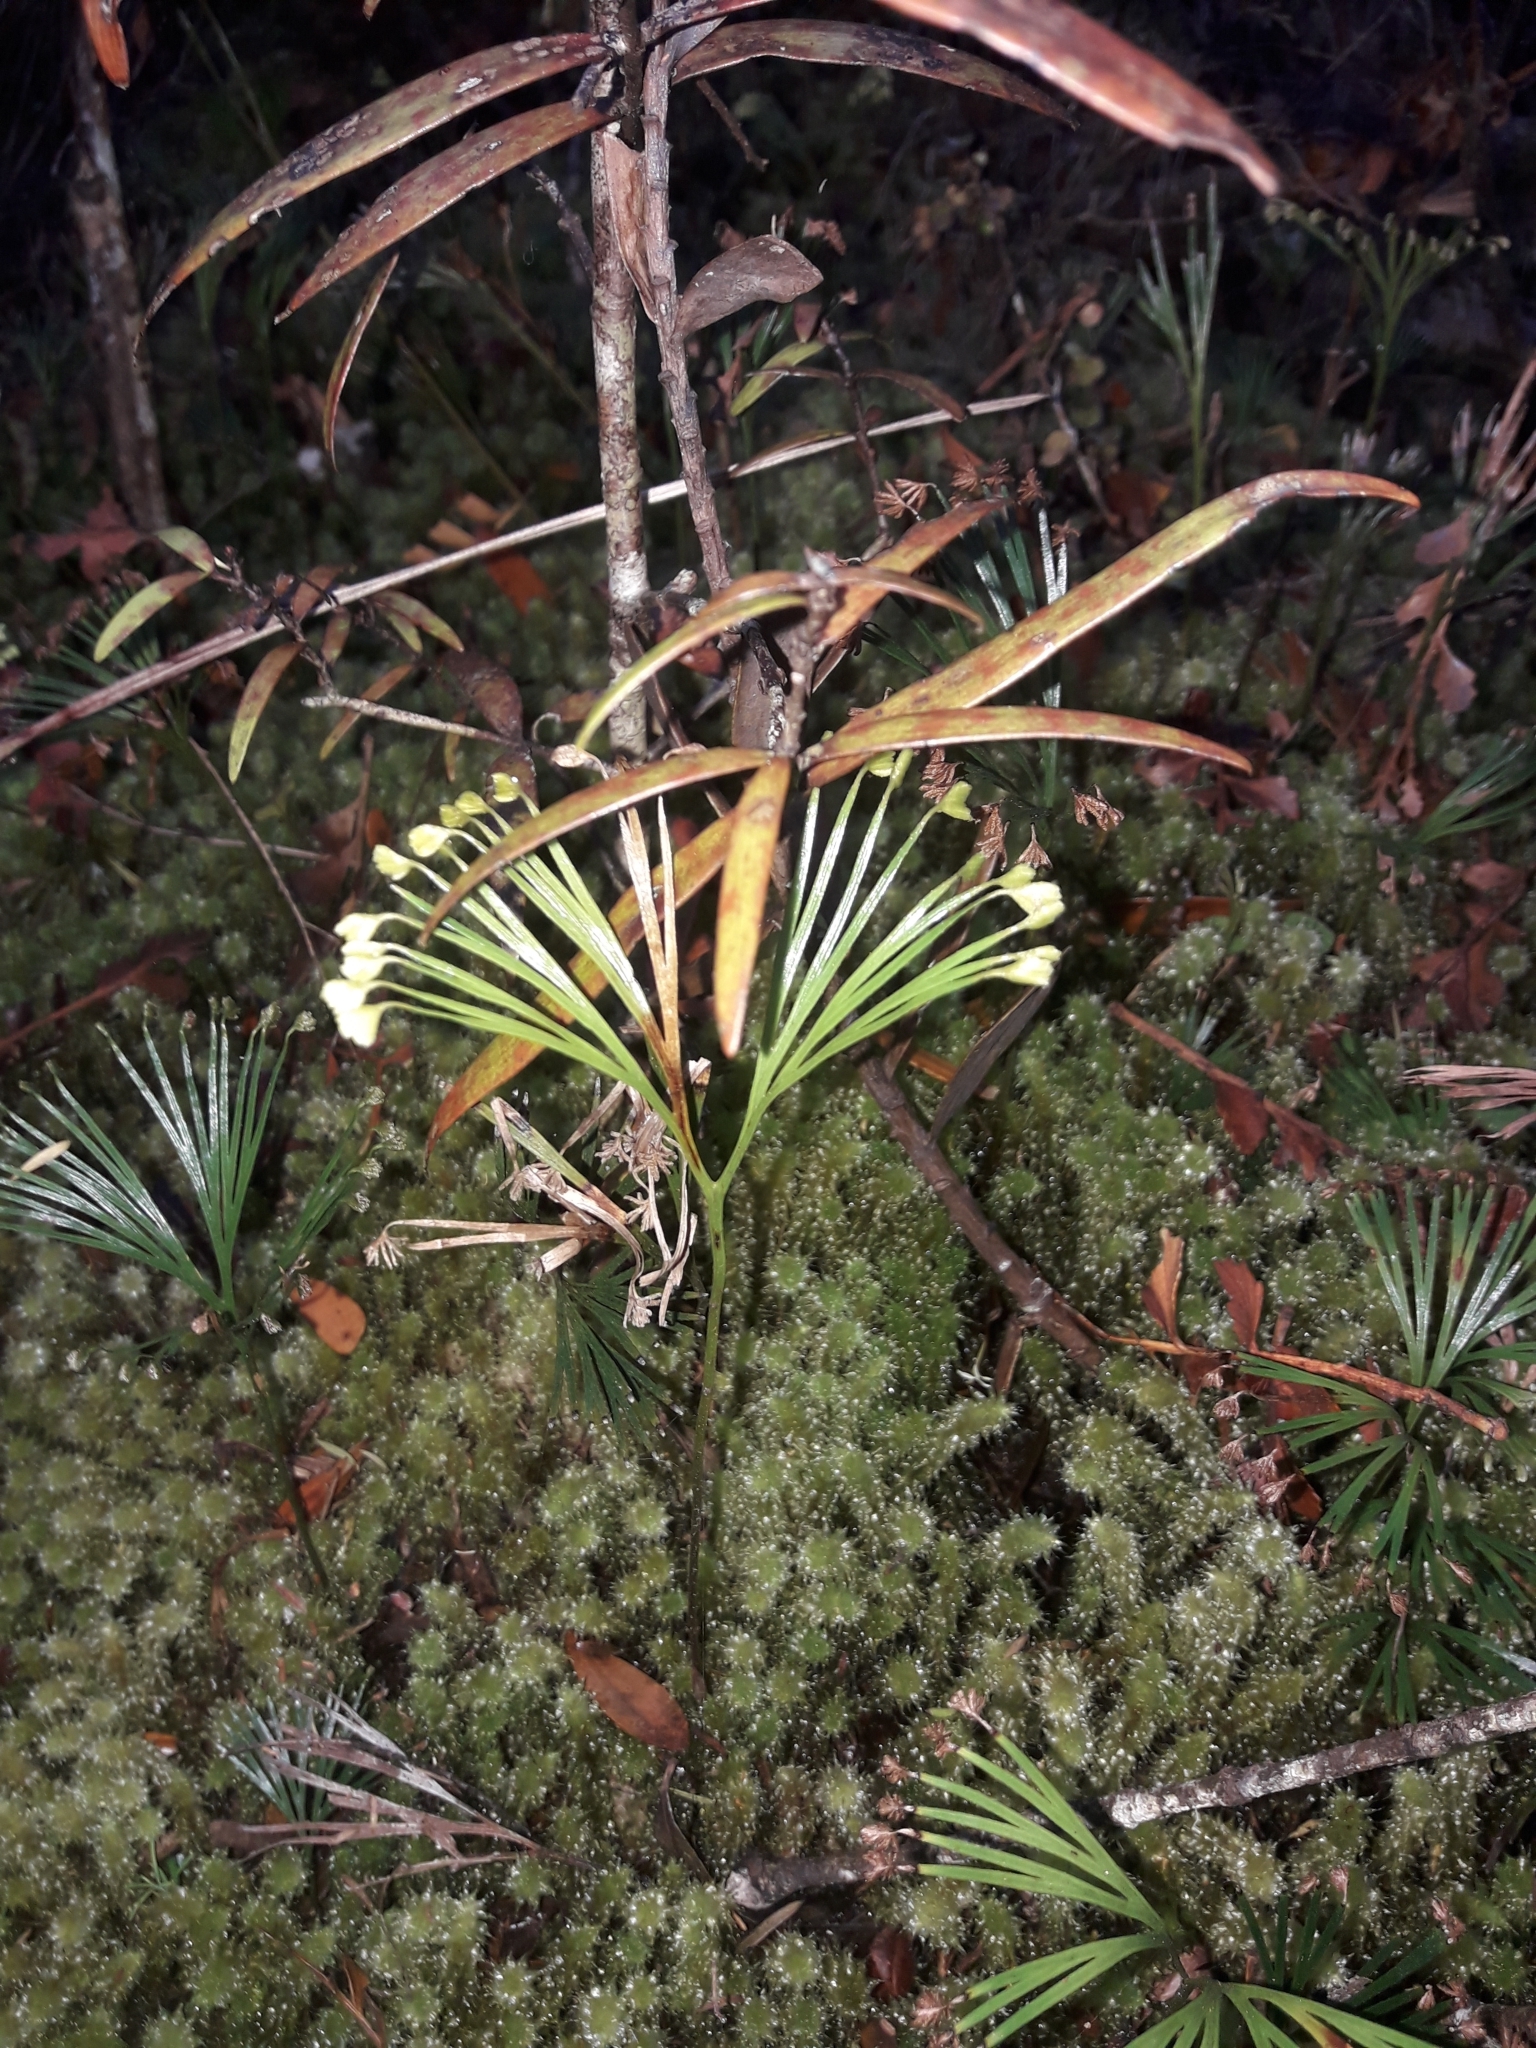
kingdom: Plantae
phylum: Tracheophyta
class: Polypodiopsida
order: Schizaeales
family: Schizaeaceae
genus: Schizaea
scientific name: Schizaea dichotoma
